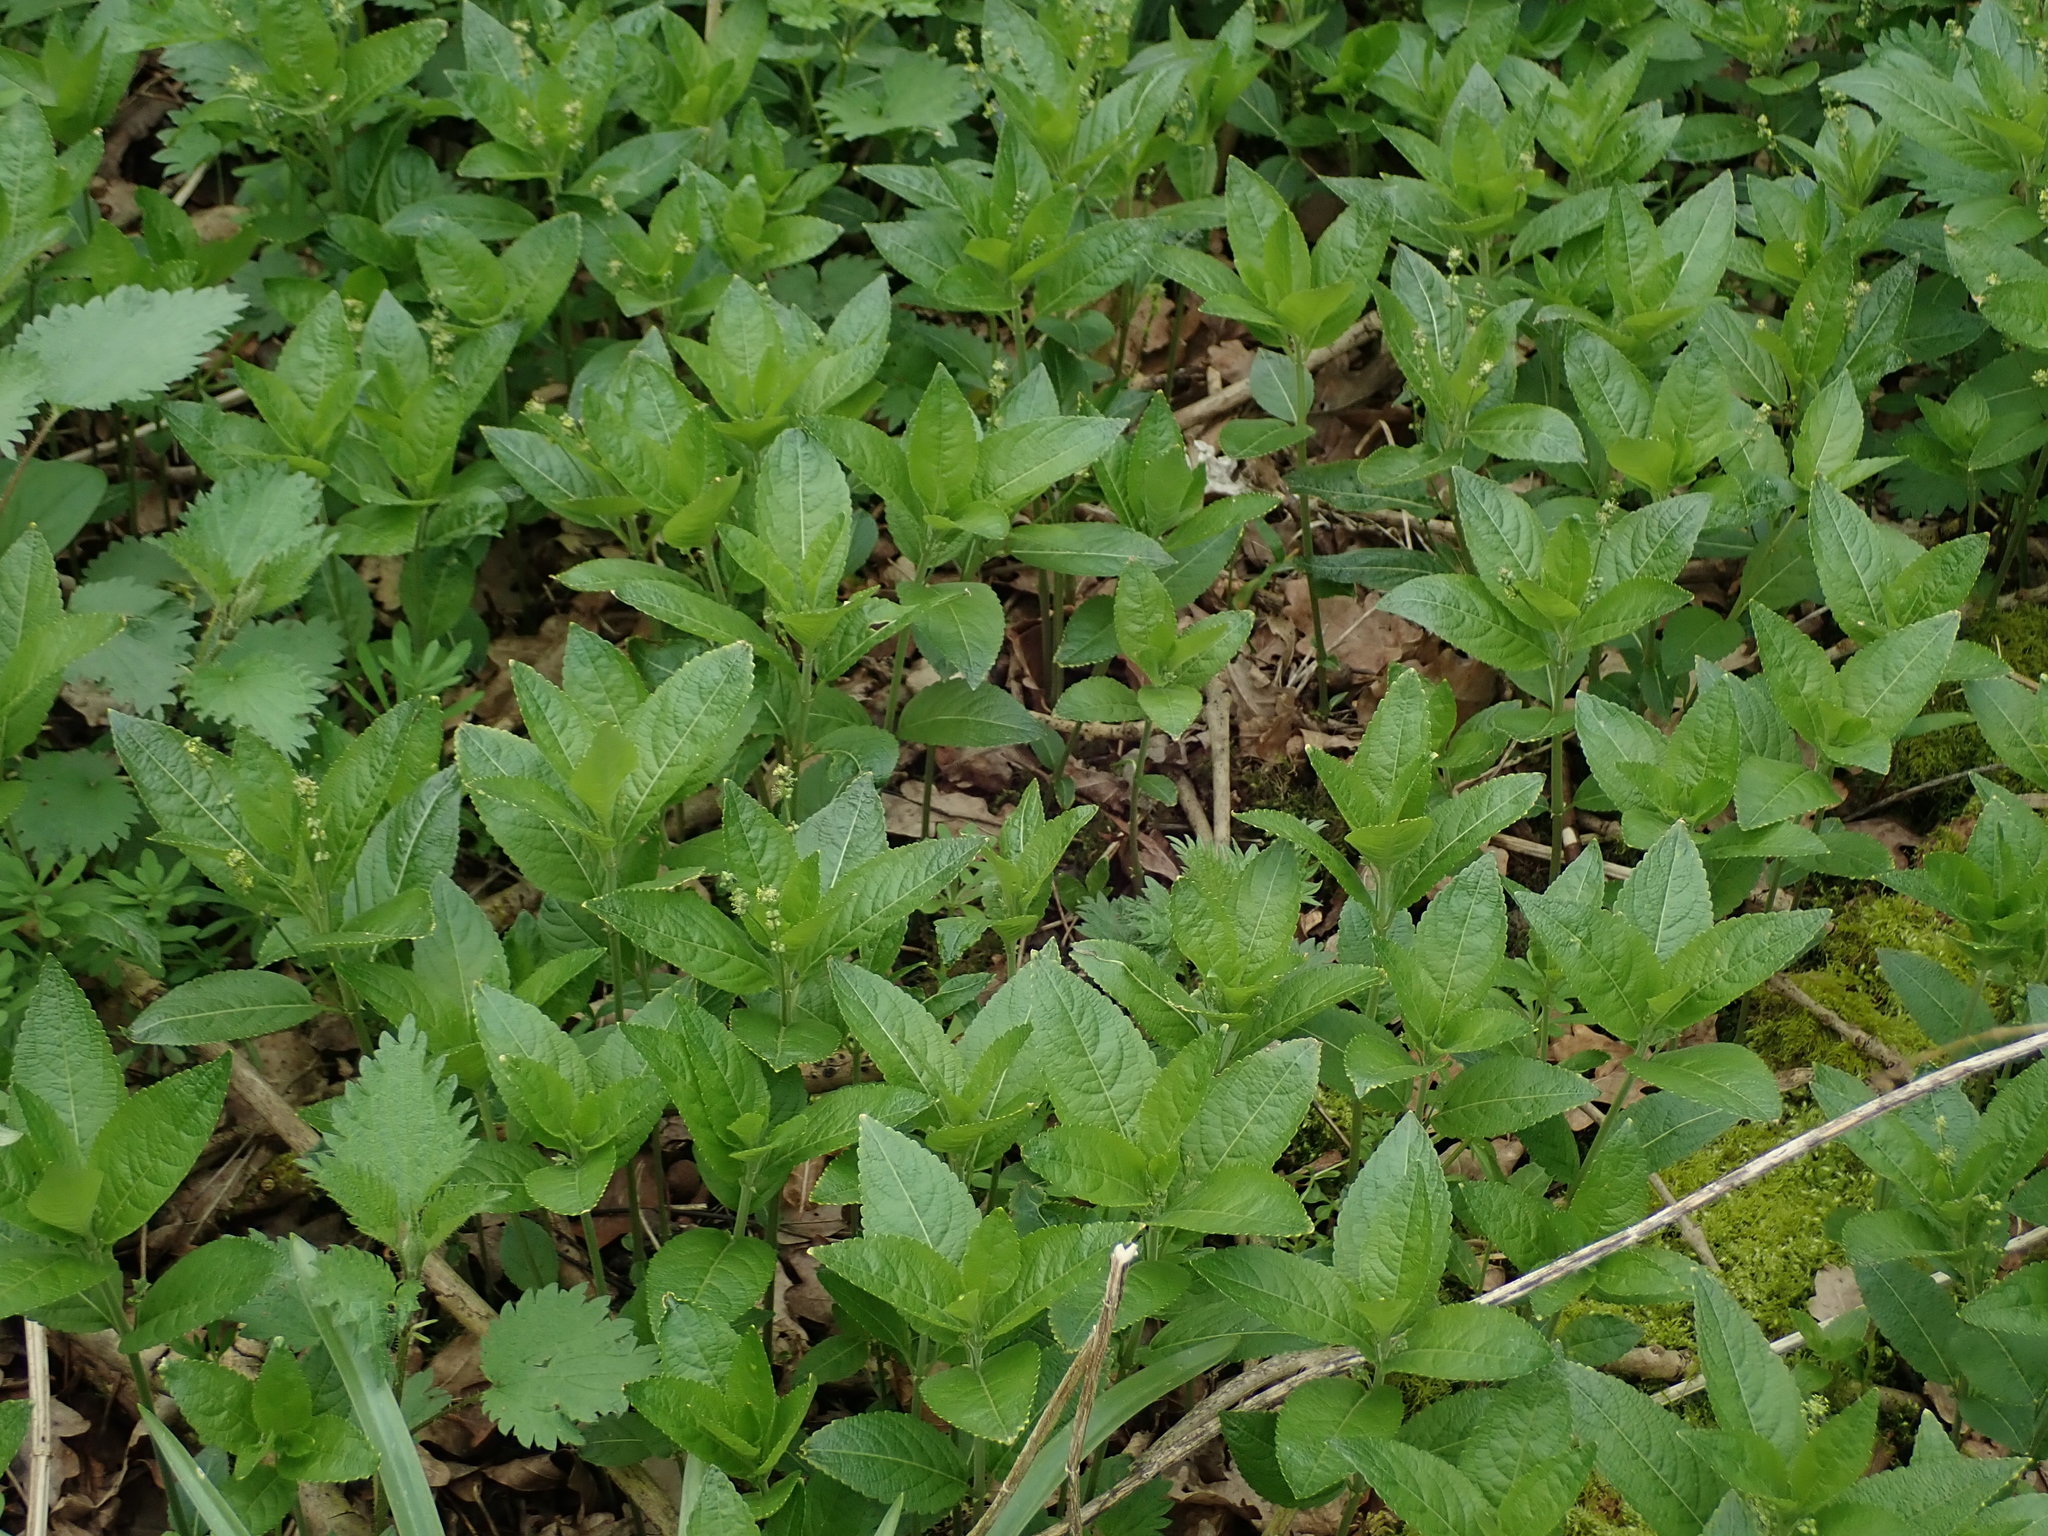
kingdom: Plantae
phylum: Tracheophyta
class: Magnoliopsida
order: Malpighiales
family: Euphorbiaceae
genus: Mercurialis
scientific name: Mercurialis perennis
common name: Dog mercury
